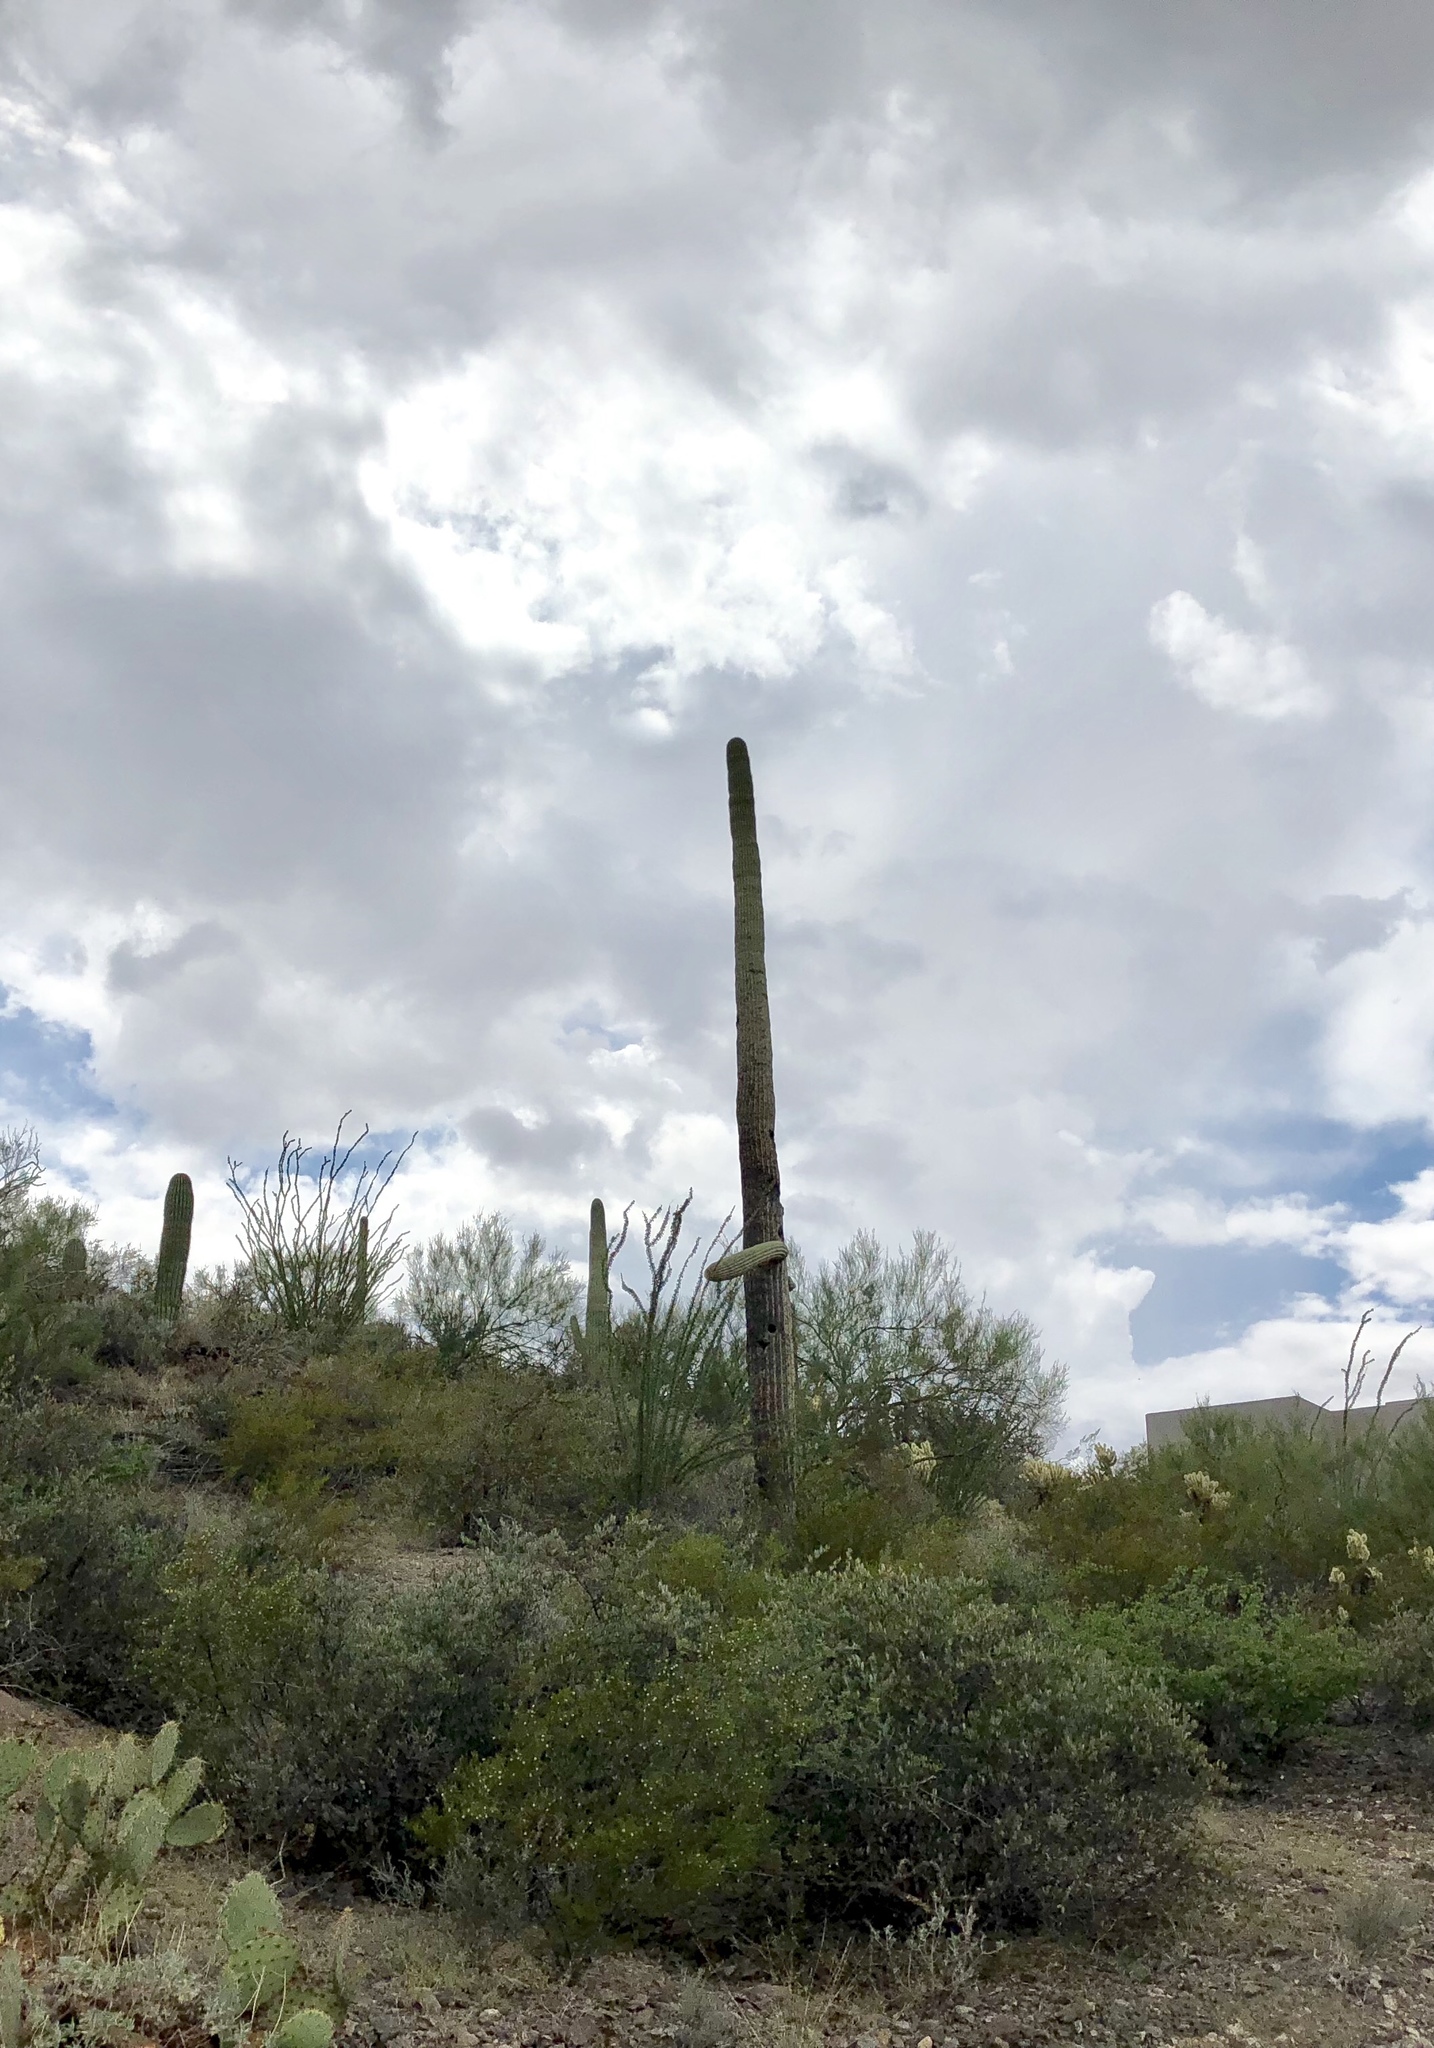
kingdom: Plantae
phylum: Tracheophyta
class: Magnoliopsida
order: Caryophyllales
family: Cactaceae
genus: Carnegiea
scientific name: Carnegiea gigantea
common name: Saguaro
